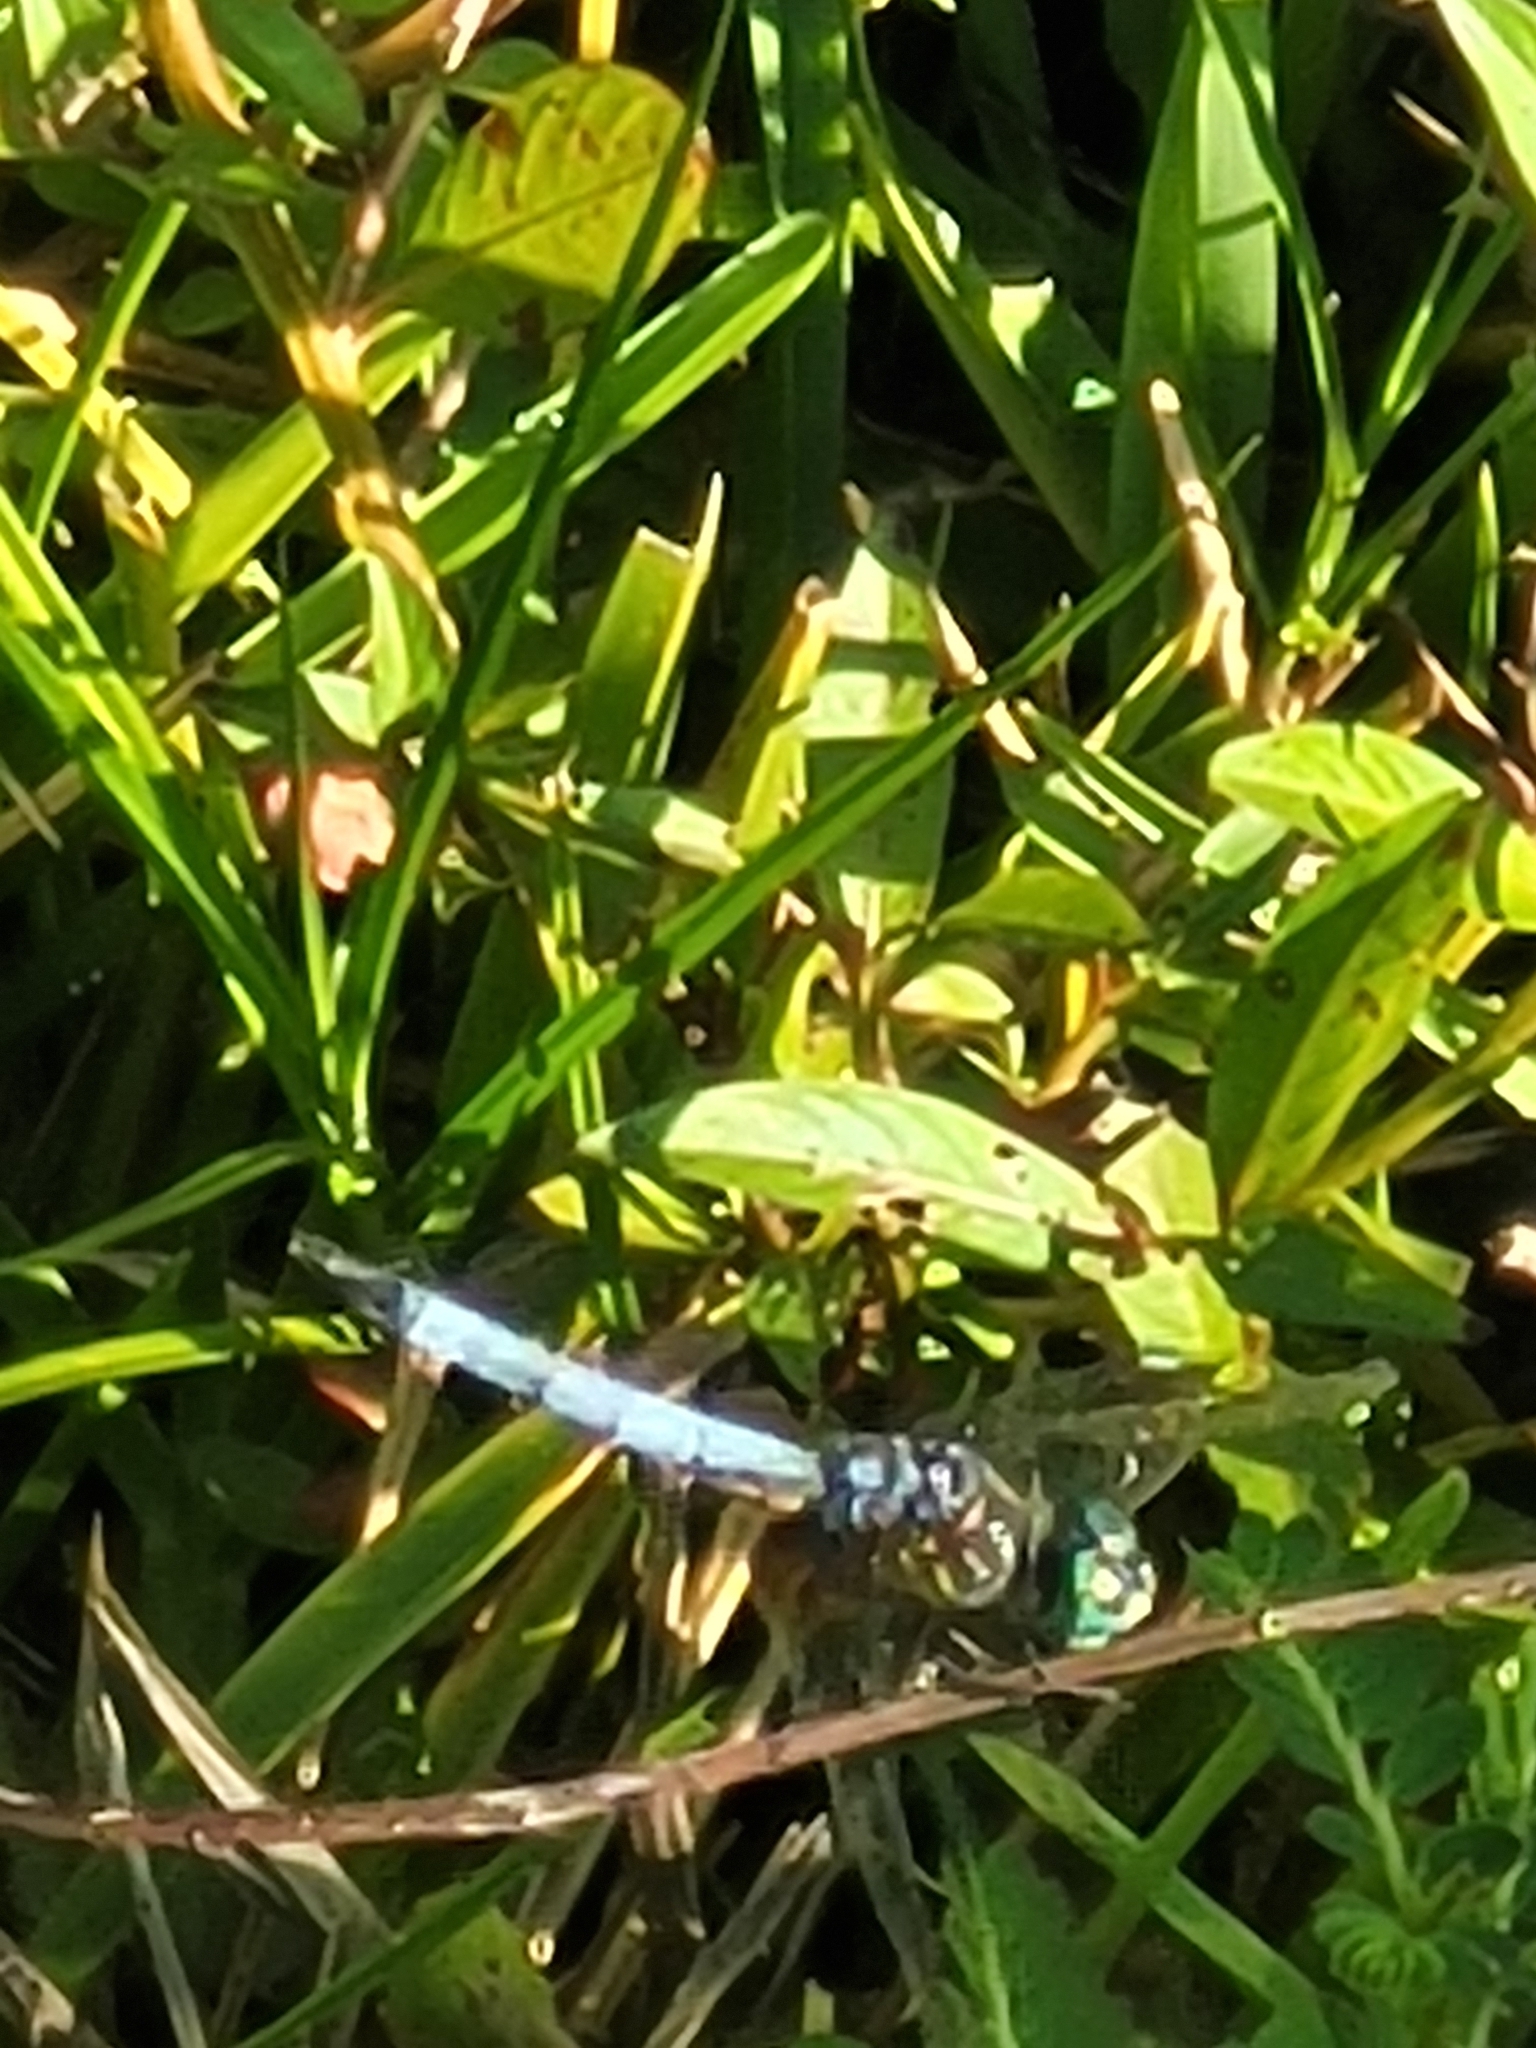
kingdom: Animalia
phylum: Arthropoda
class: Insecta
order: Odonata
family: Libellulidae
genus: Pachydiplax
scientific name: Pachydiplax longipennis
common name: Blue dasher
